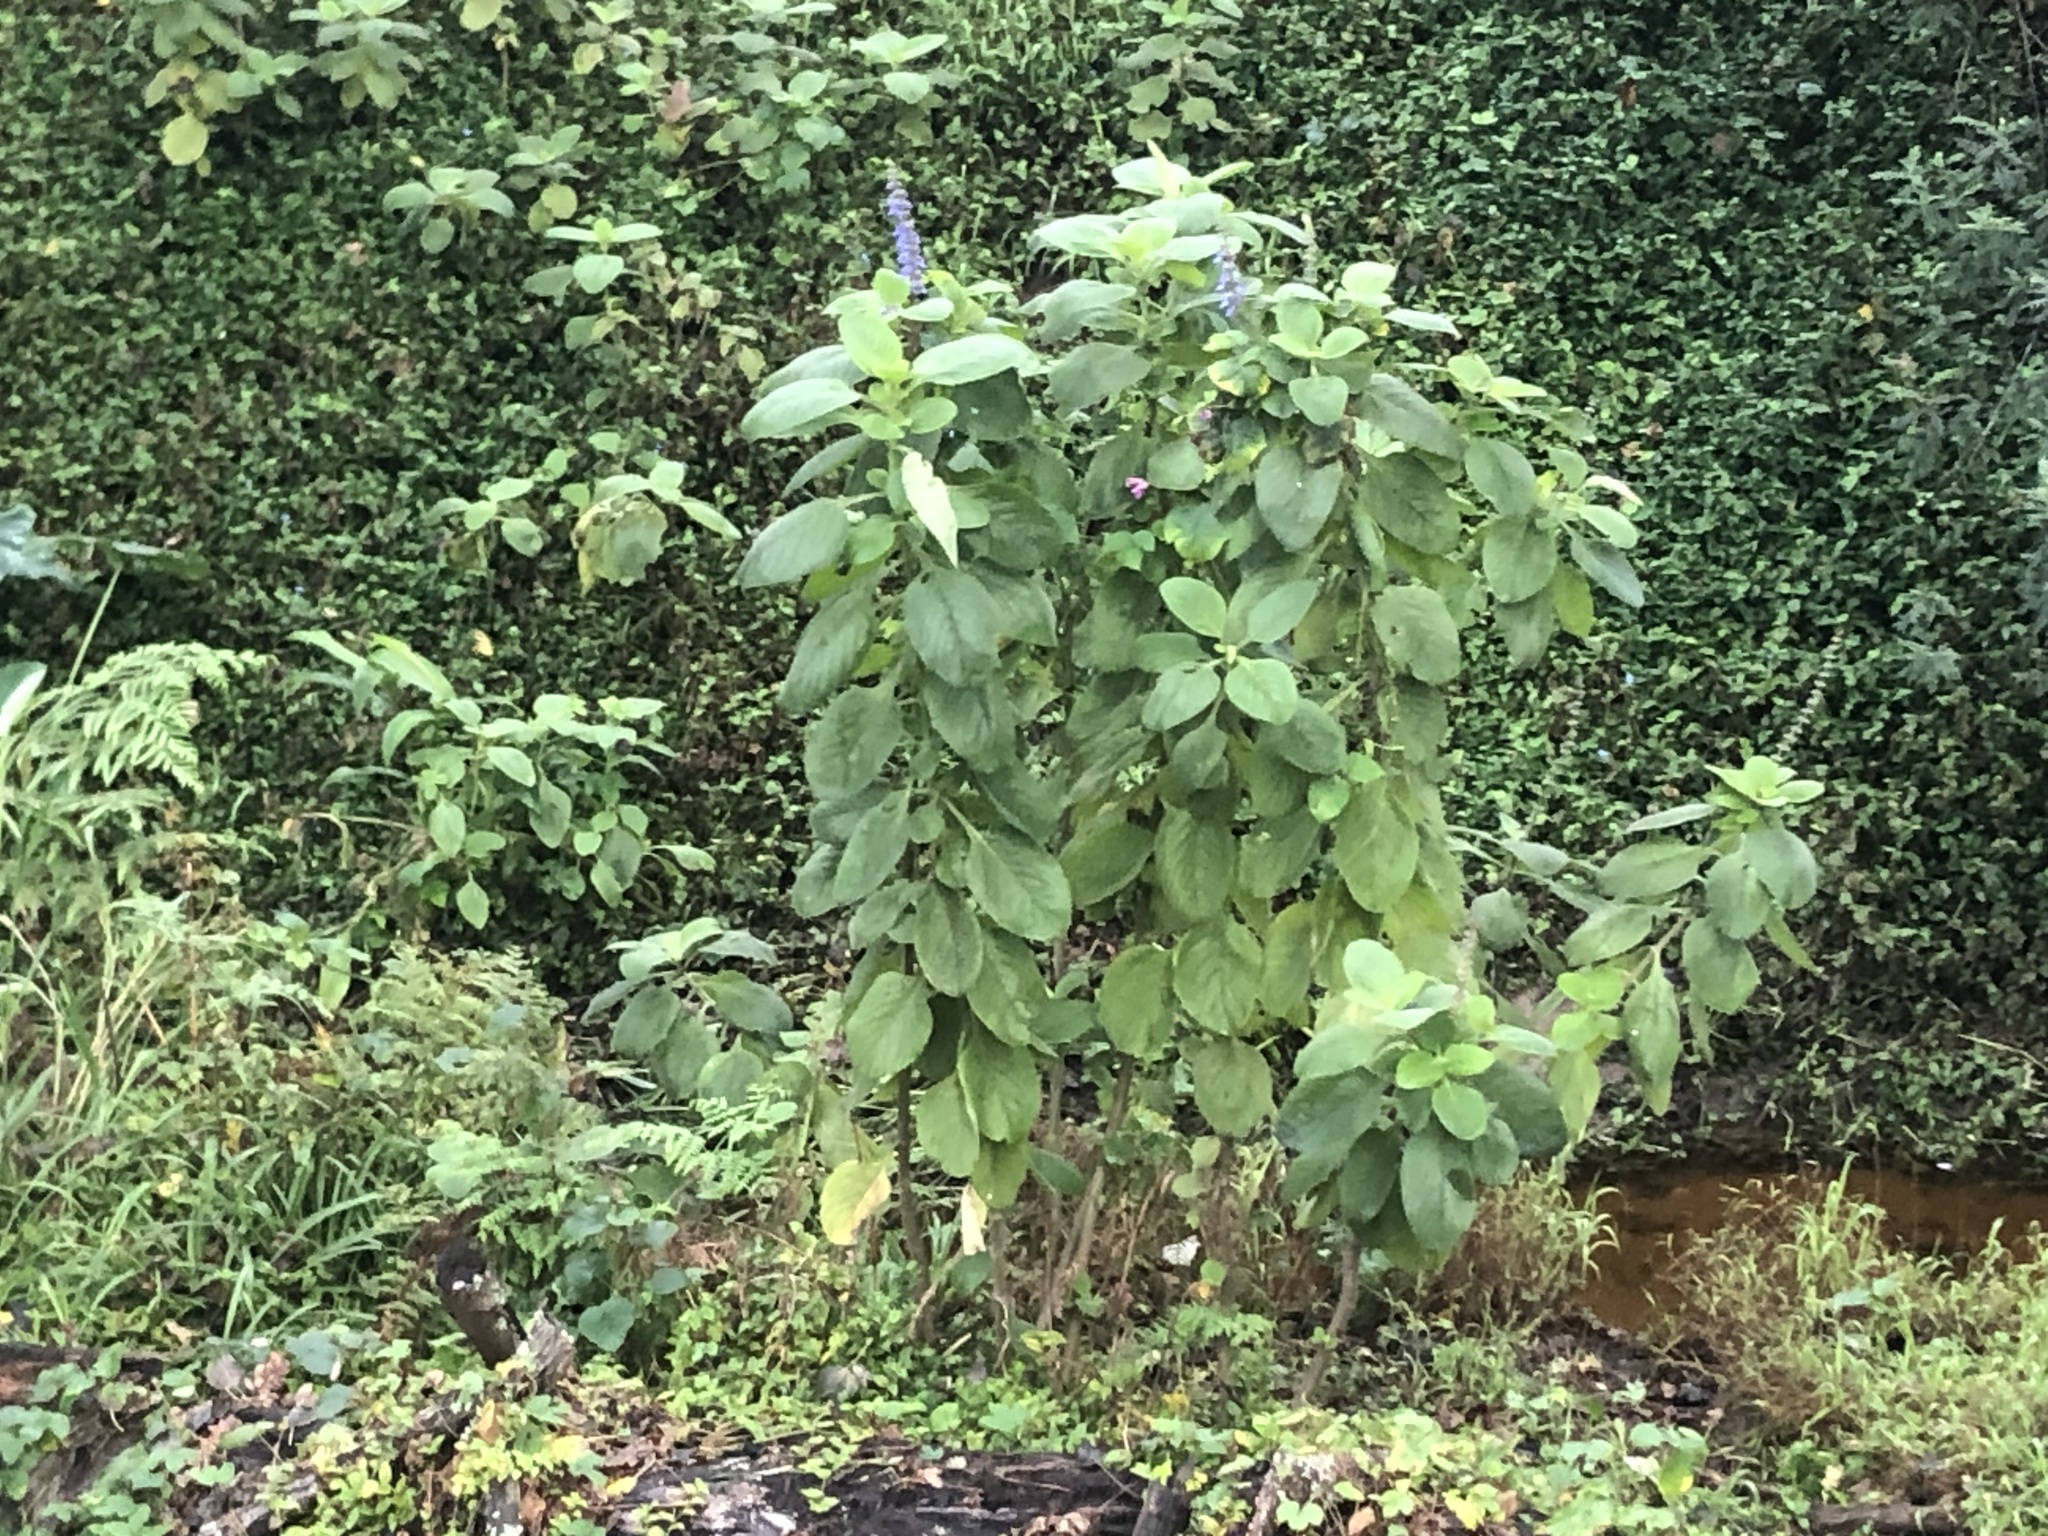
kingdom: Plantae
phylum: Tracheophyta
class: Magnoliopsida
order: Lamiales
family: Lamiaceae
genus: Coleus
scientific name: Coleus barbatus
